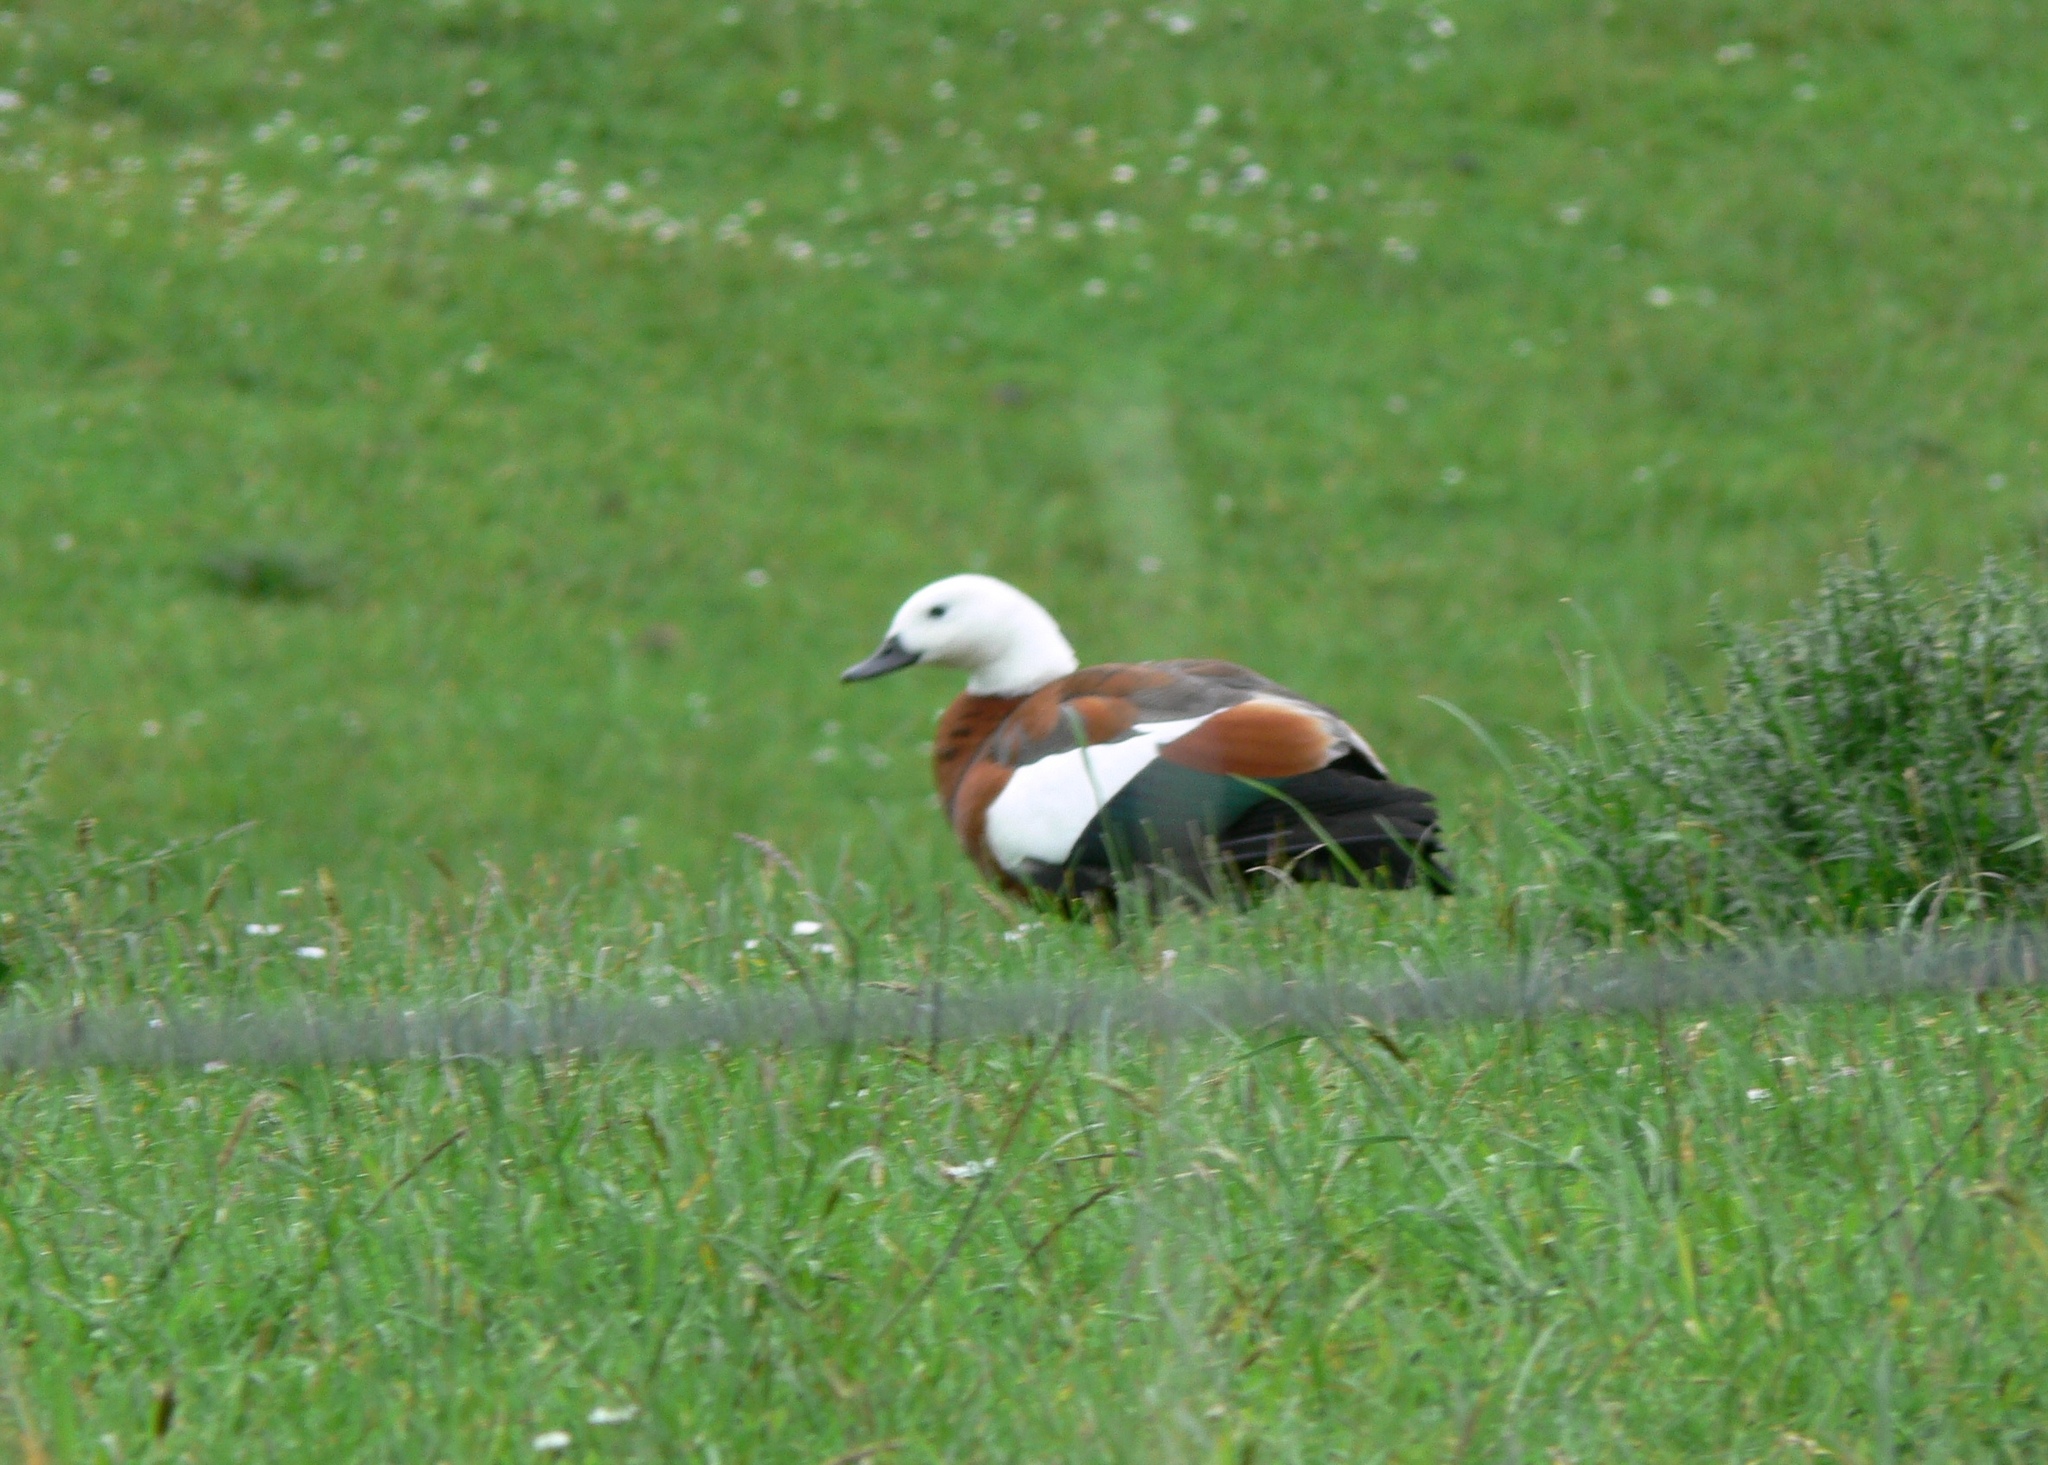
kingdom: Animalia
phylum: Chordata
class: Aves
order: Anseriformes
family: Anatidae
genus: Tadorna
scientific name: Tadorna variegata
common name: Paradise shelduck
